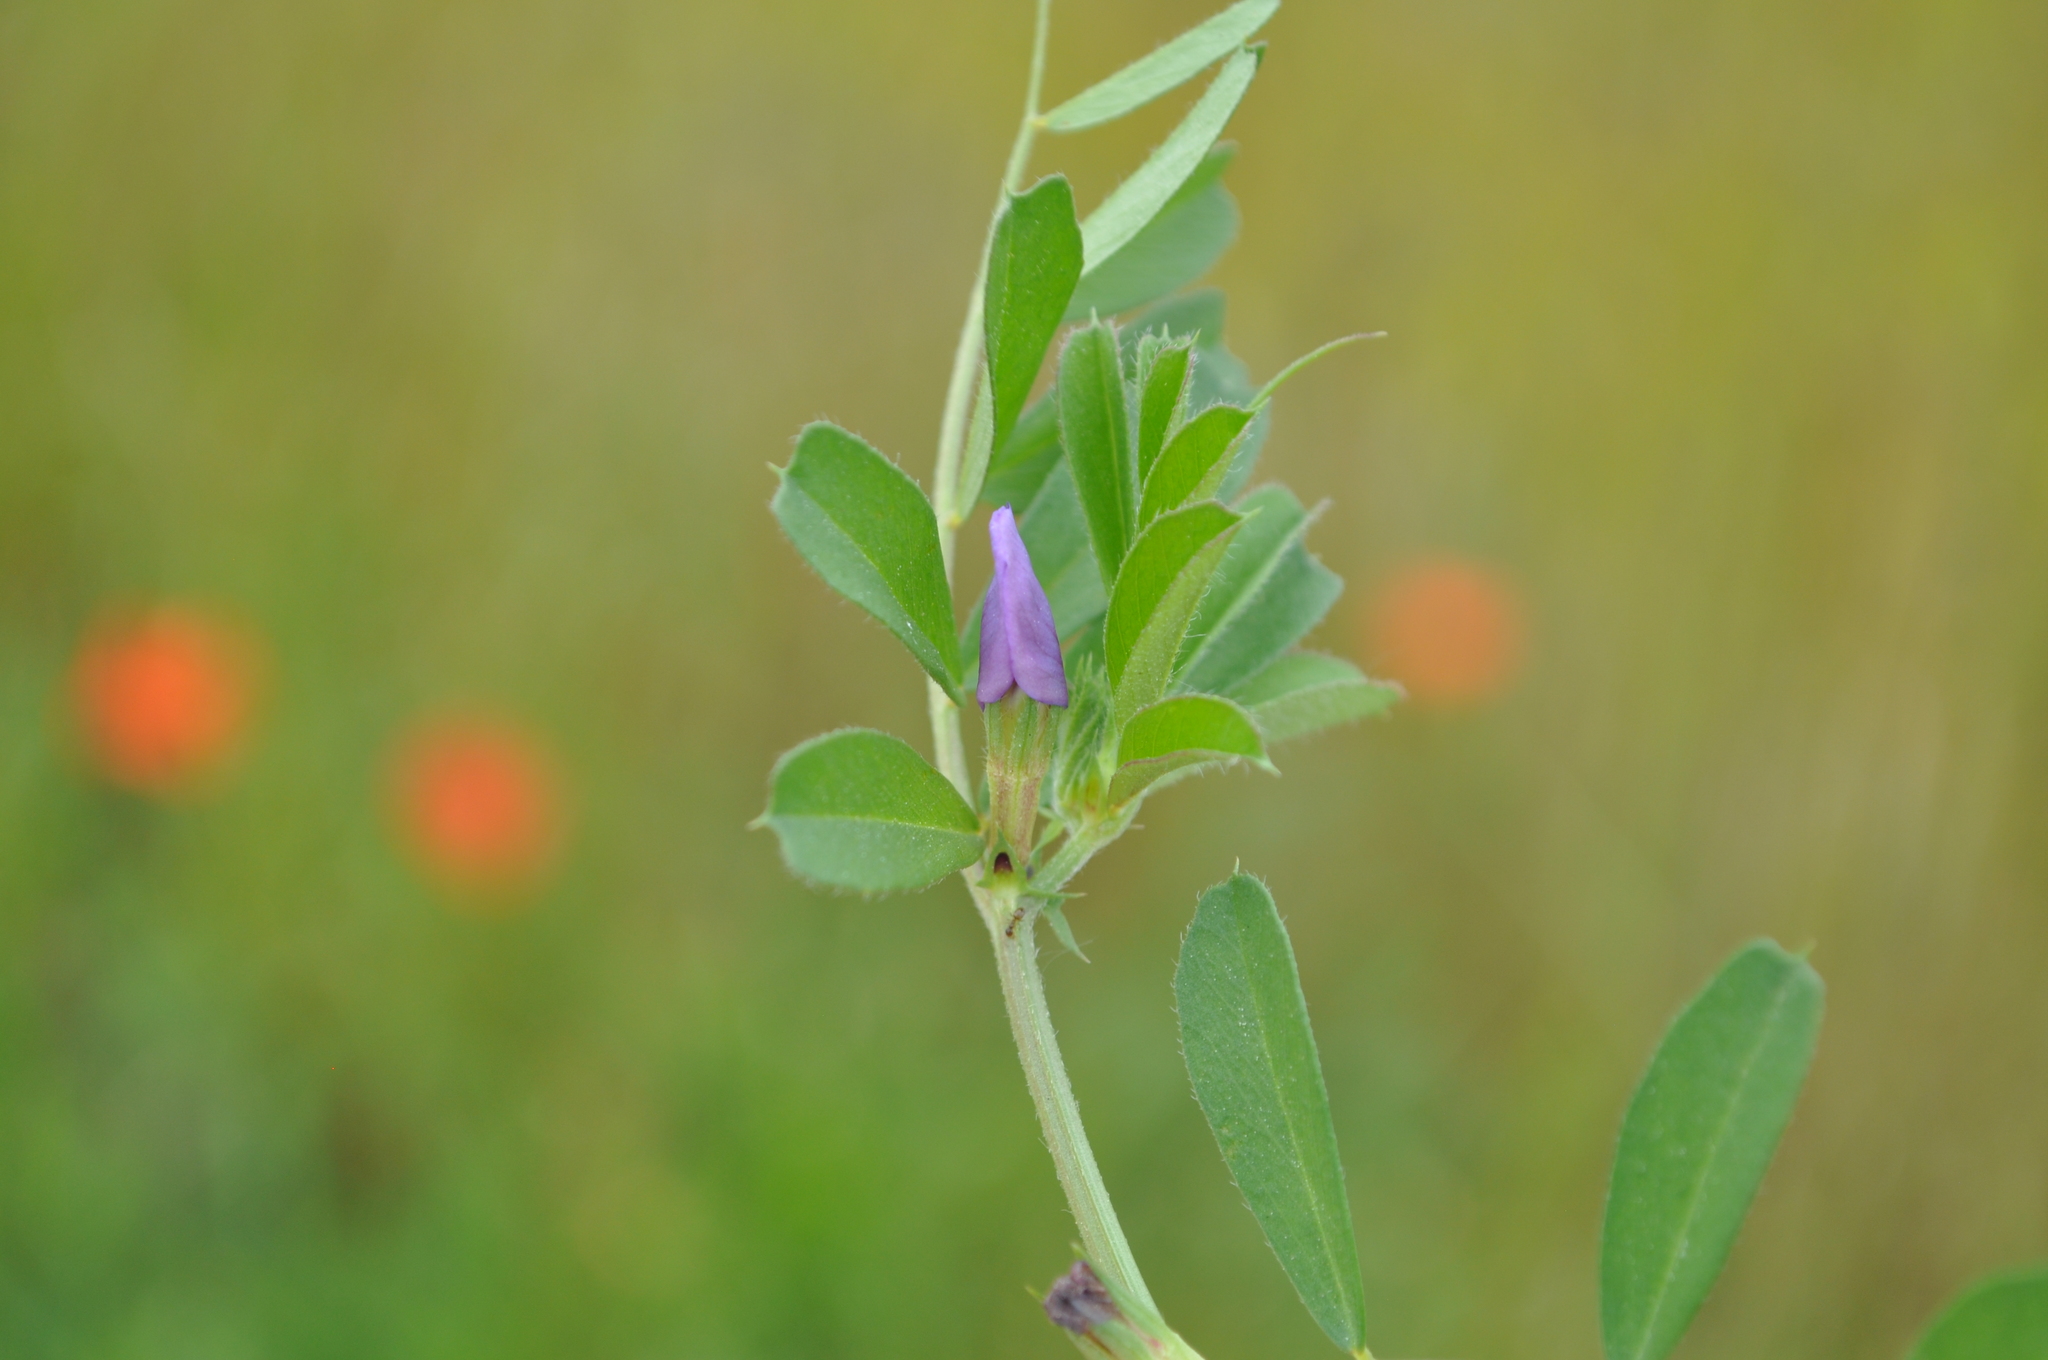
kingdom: Plantae
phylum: Tracheophyta
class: Magnoliopsida
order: Fabales
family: Fabaceae
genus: Vicia
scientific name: Vicia sativa
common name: Garden vetch
